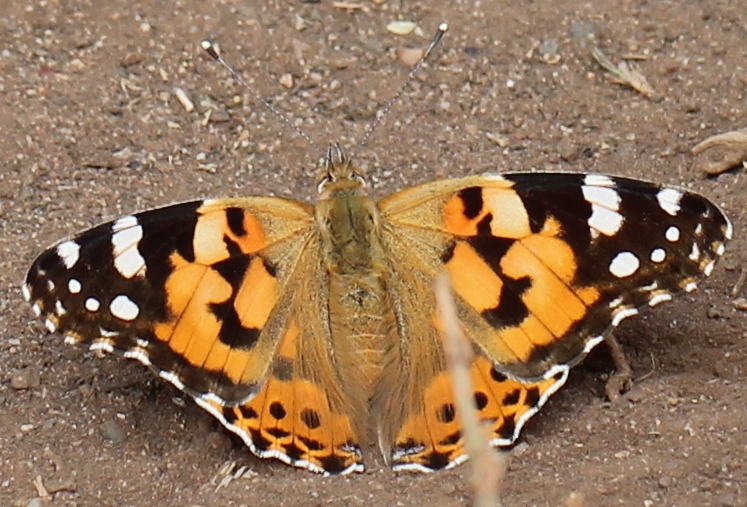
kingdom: Animalia
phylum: Arthropoda
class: Insecta
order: Lepidoptera
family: Nymphalidae
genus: Vanessa
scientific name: Vanessa cardui
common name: Painted lady
